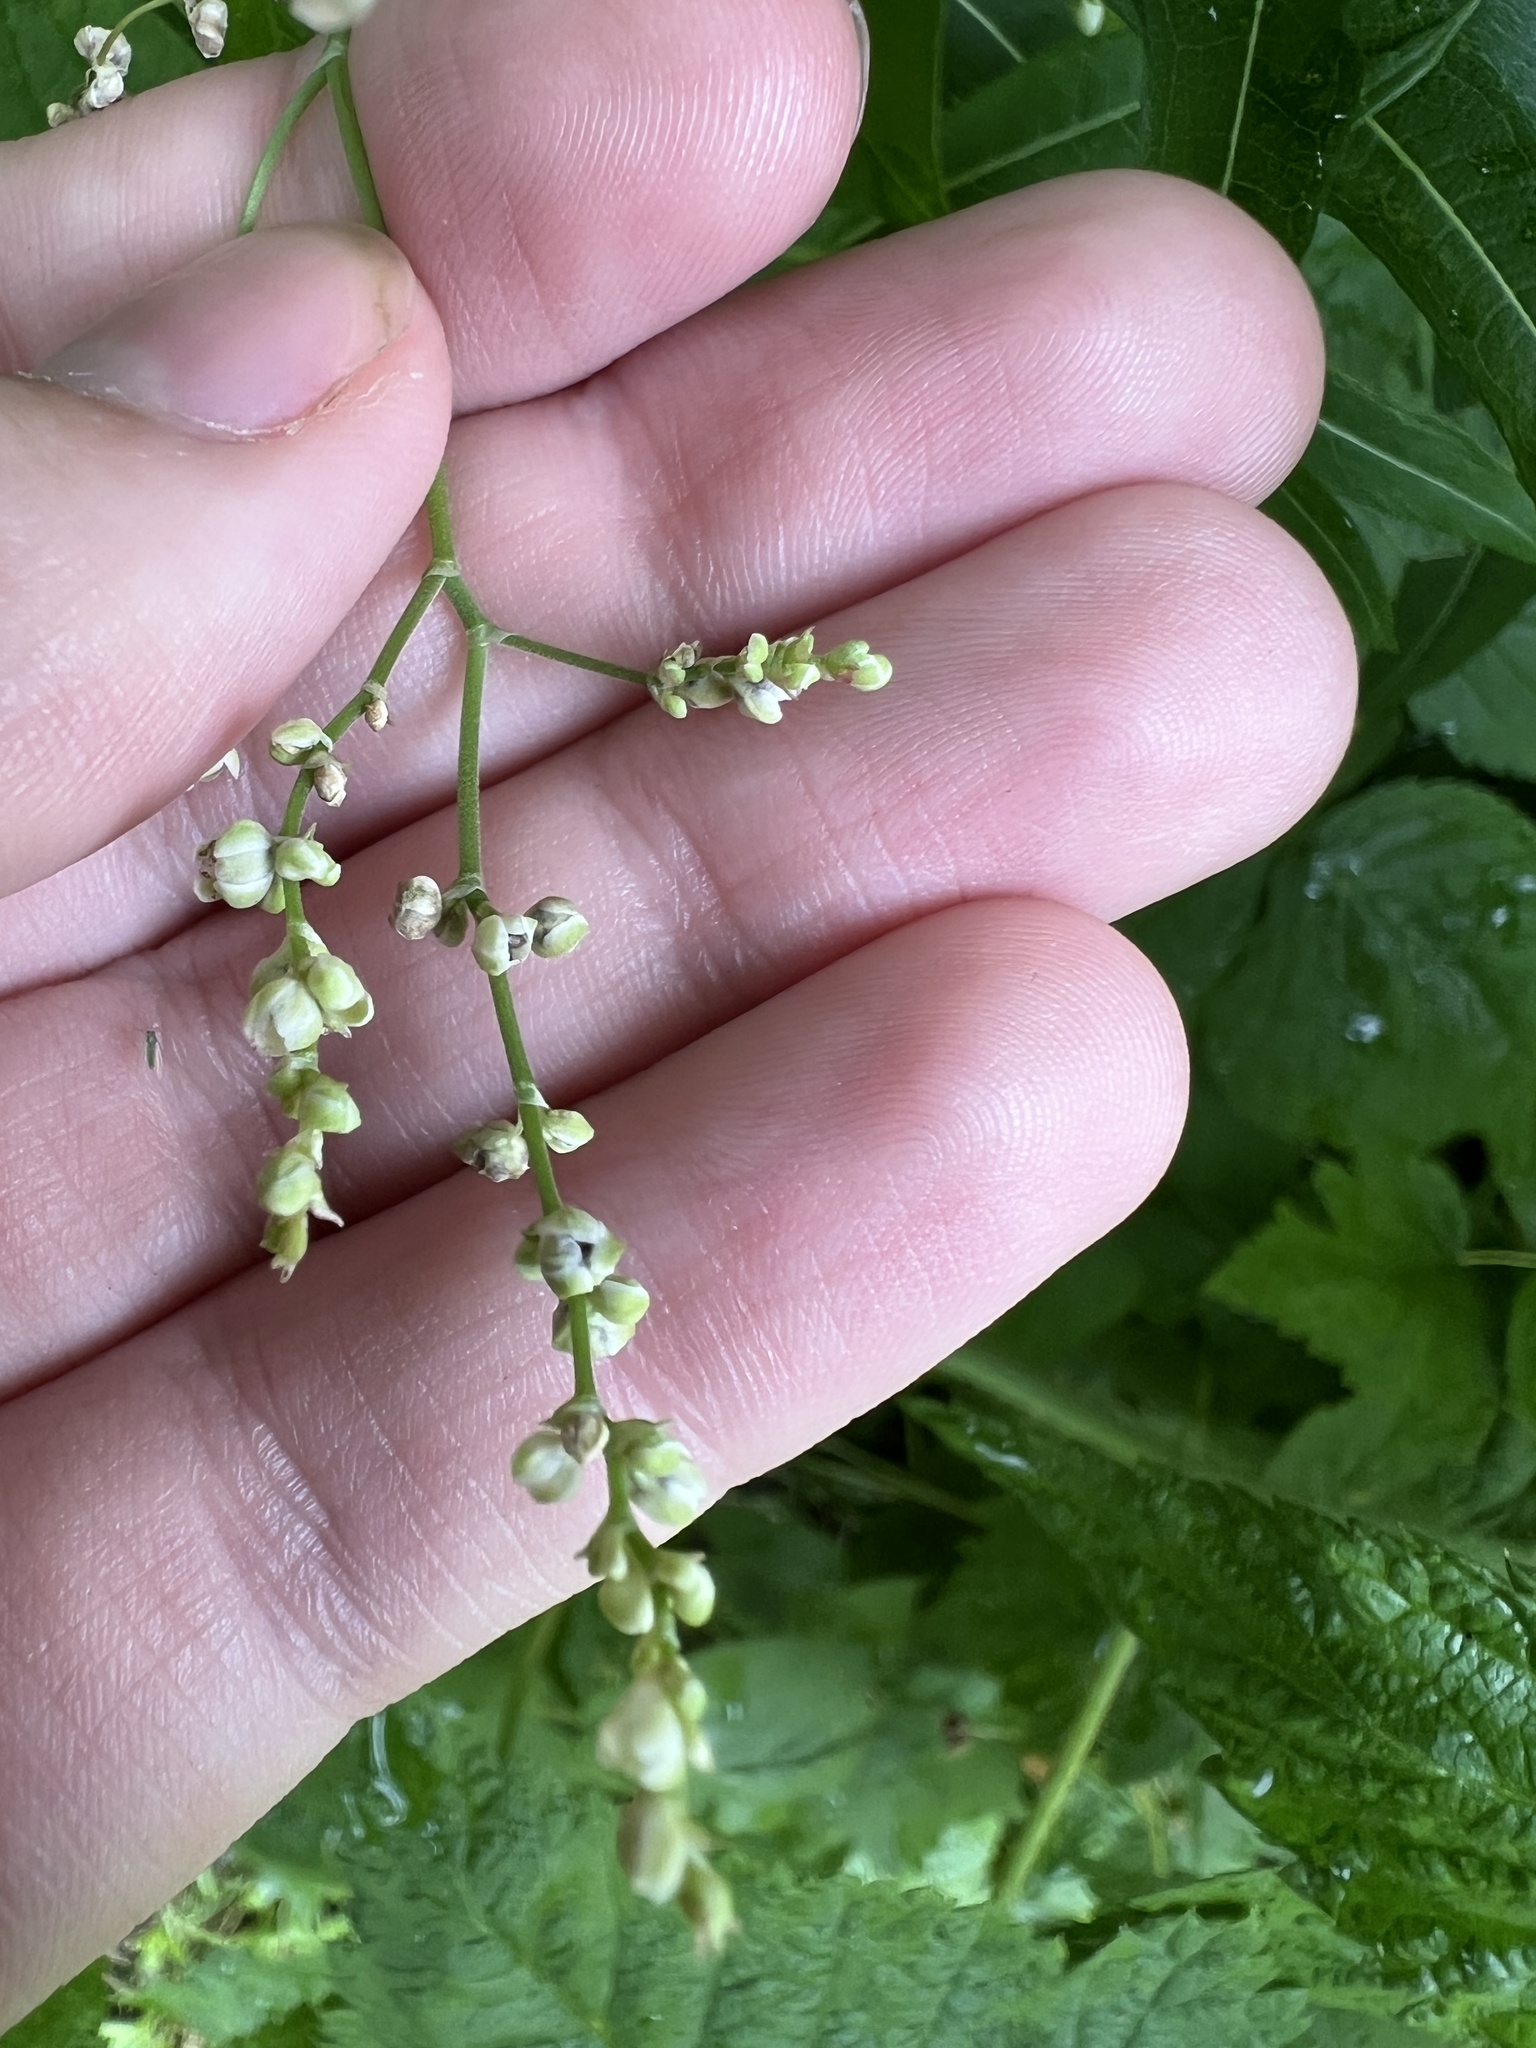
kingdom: Plantae
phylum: Tracheophyta
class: Magnoliopsida
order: Caryophyllales
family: Polygonaceae
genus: Parogonum
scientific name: Parogonum ciliinode
